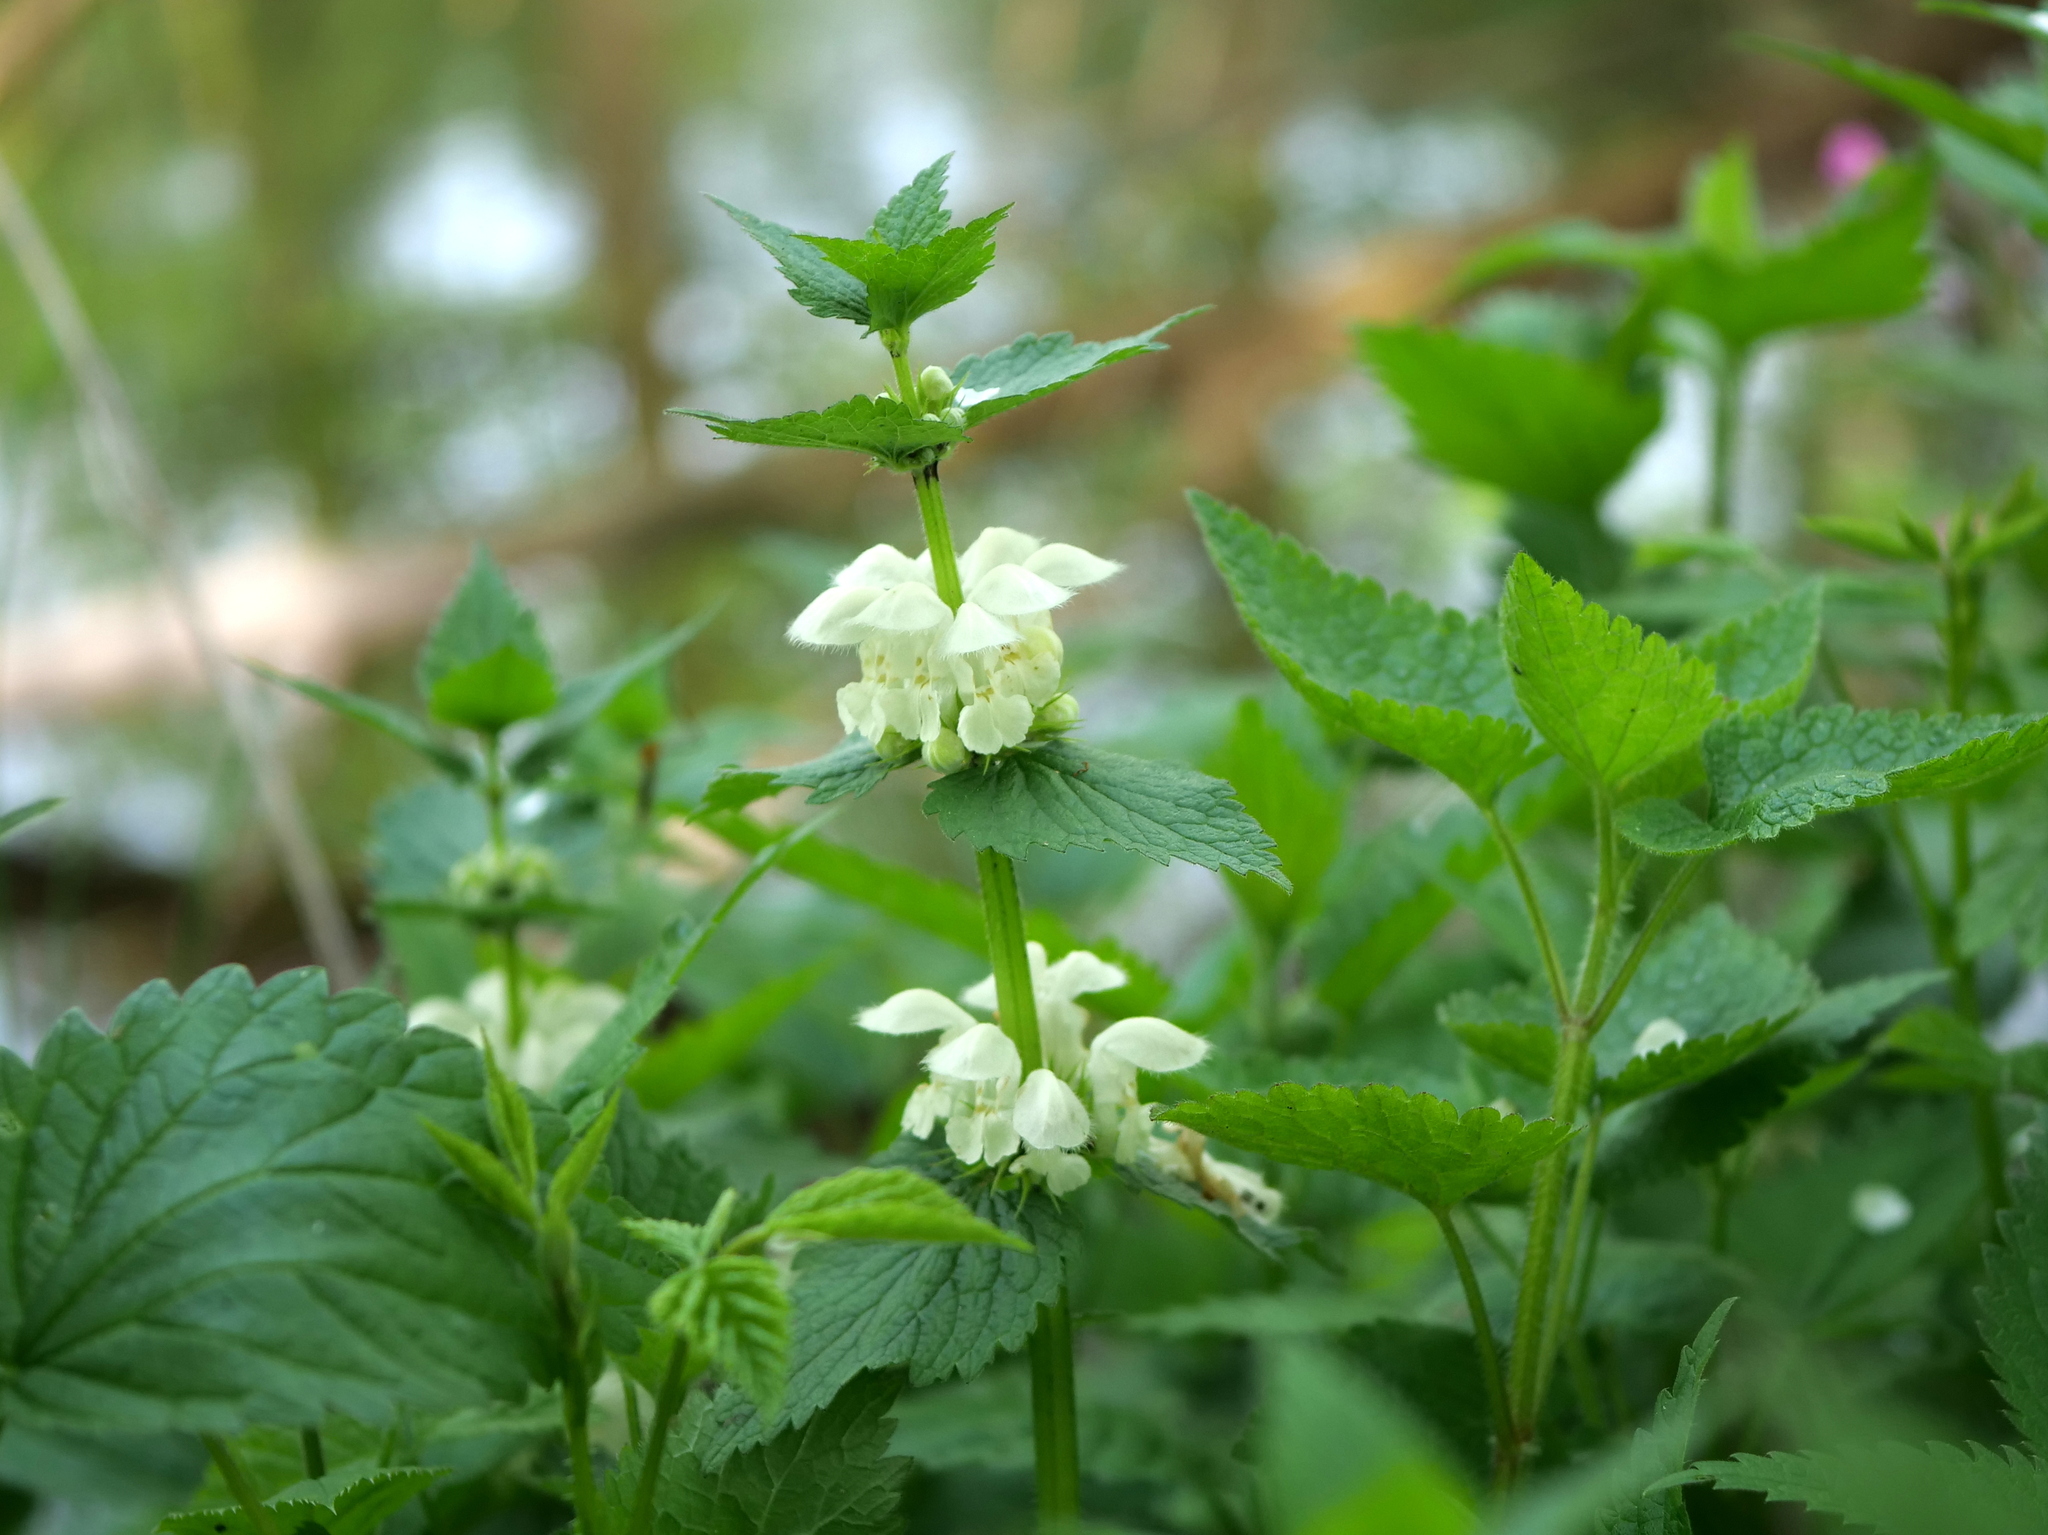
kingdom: Plantae
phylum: Tracheophyta
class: Magnoliopsida
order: Lamiales
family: Lamiaceae
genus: Lamium
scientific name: Lamium album
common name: White dead-nettle
